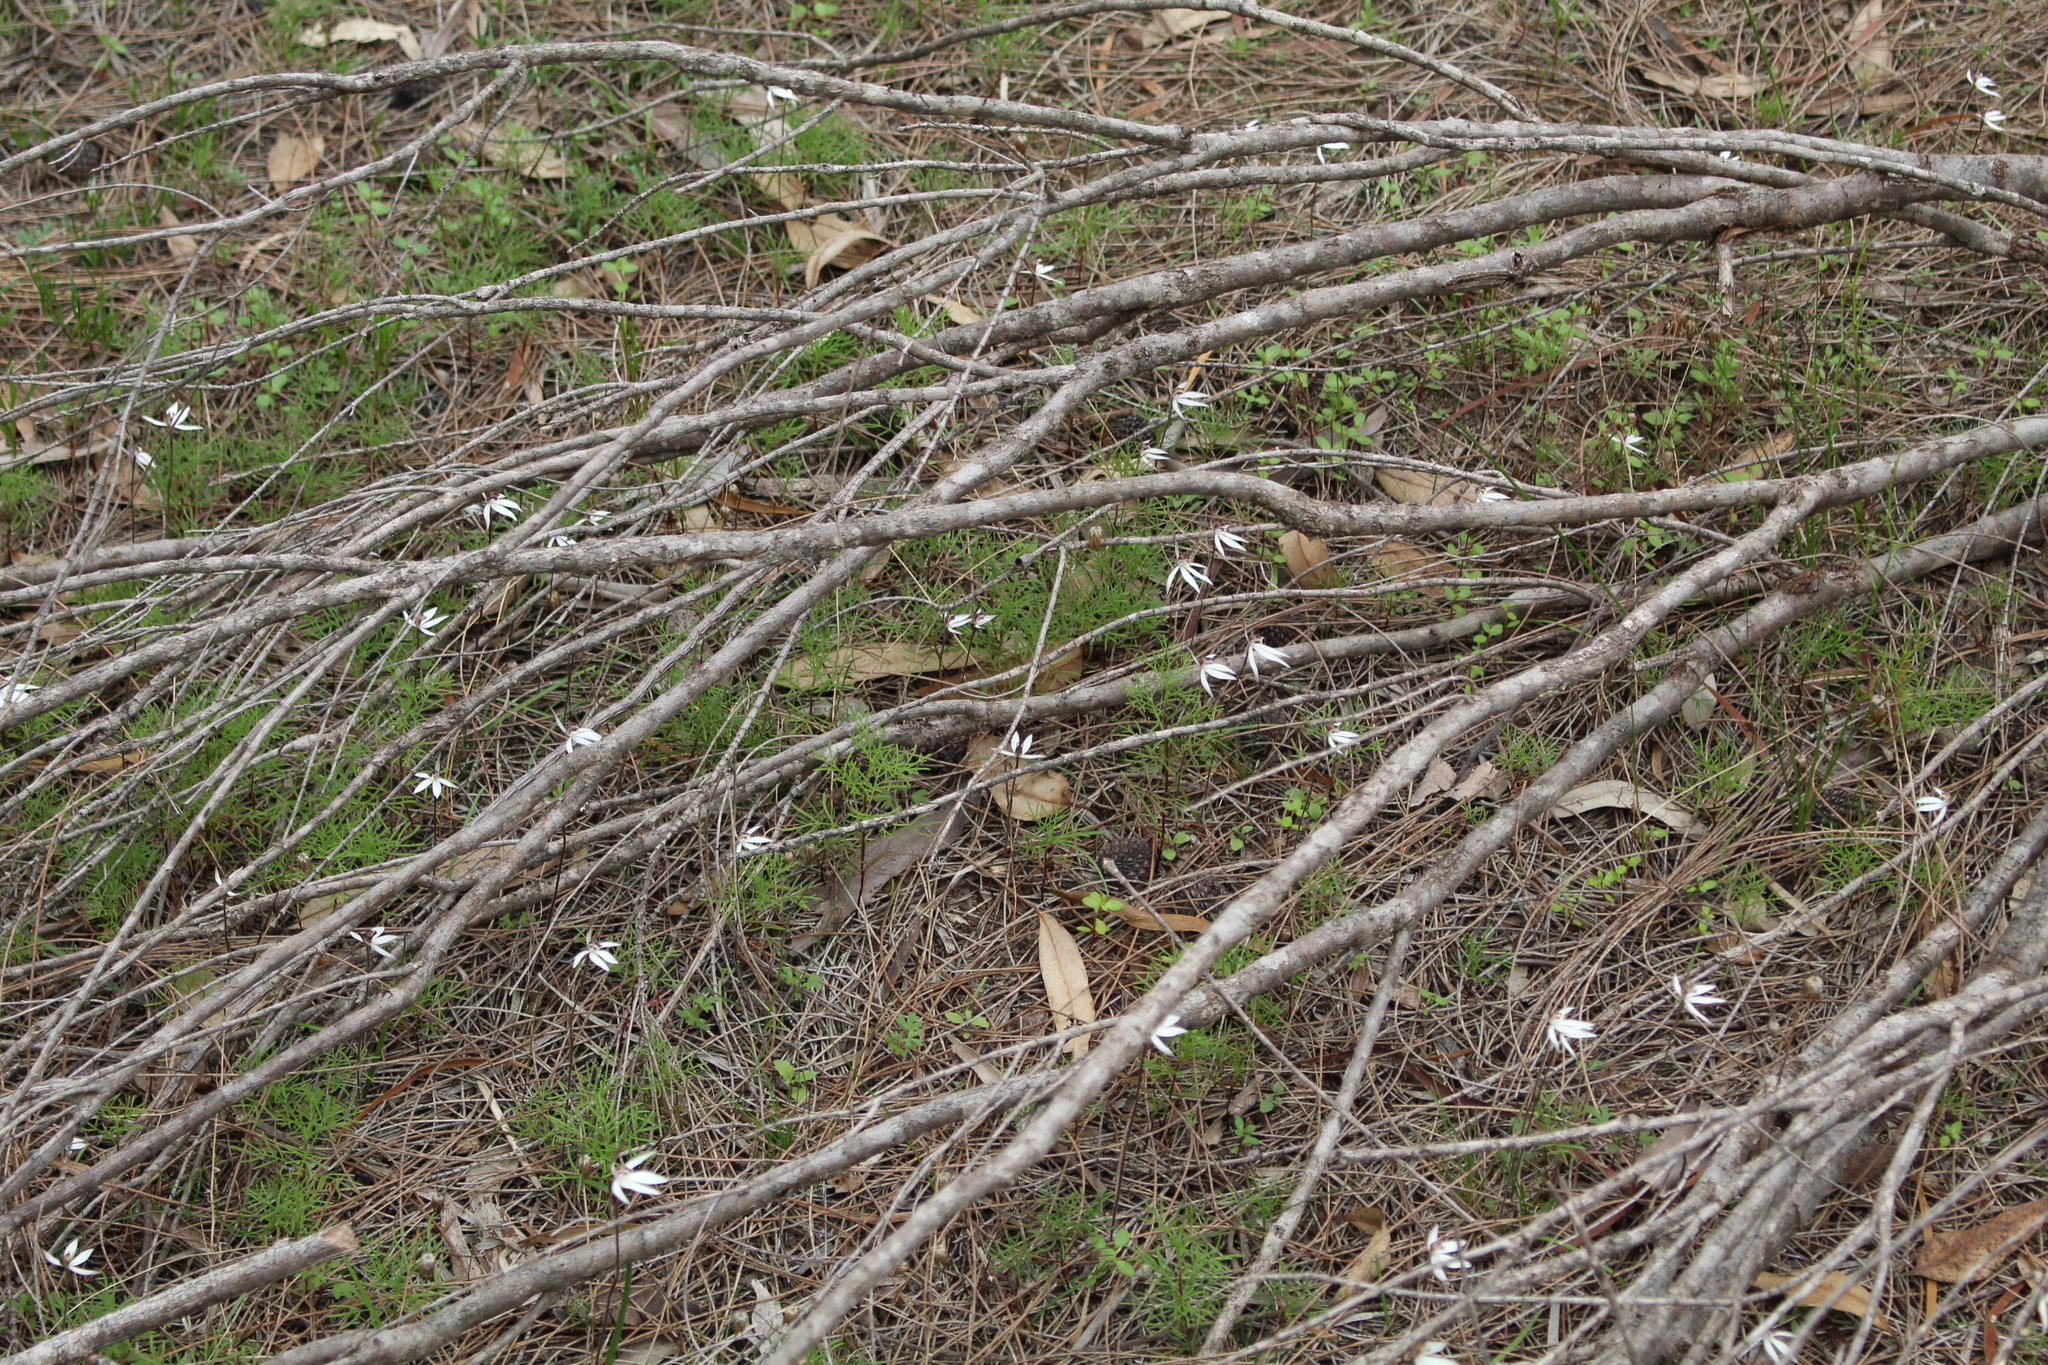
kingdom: Plantae
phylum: Tracheophyta
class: Liliopsida
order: Asparagales
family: Orchidaceae
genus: Caladenia
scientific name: Caladenia saccharata
